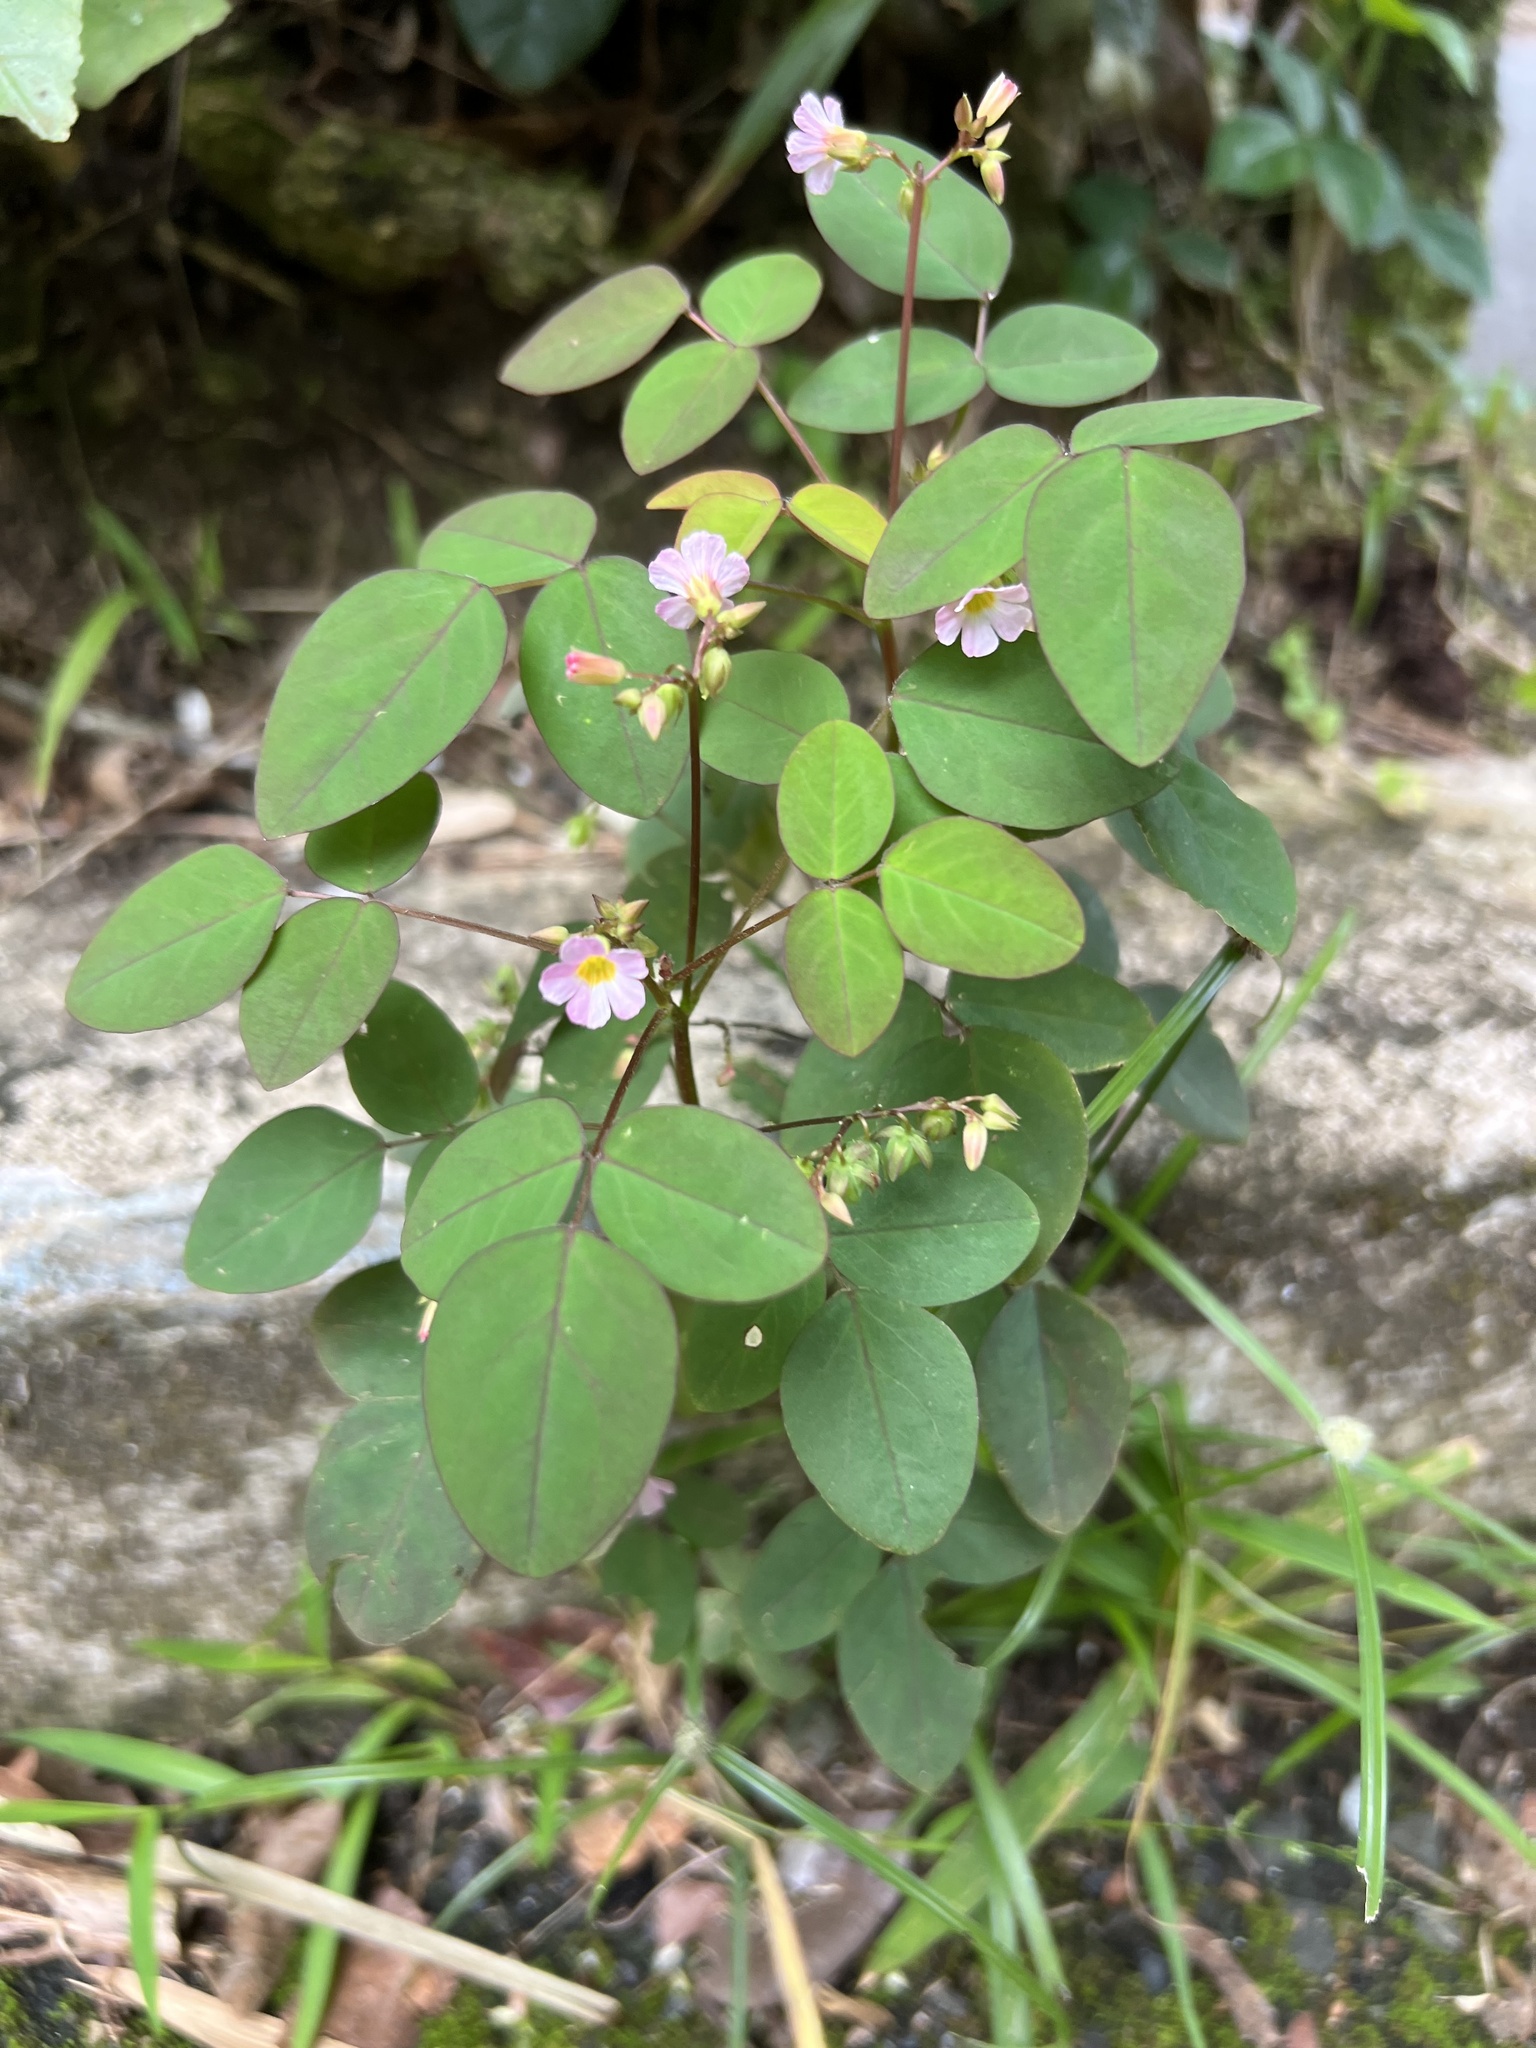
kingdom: Plantae
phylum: Tracheophyta
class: Magnoliopsida
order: Oxalidales
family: Oxalidaceae
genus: Oxalis
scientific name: Oxalis barrelieri
